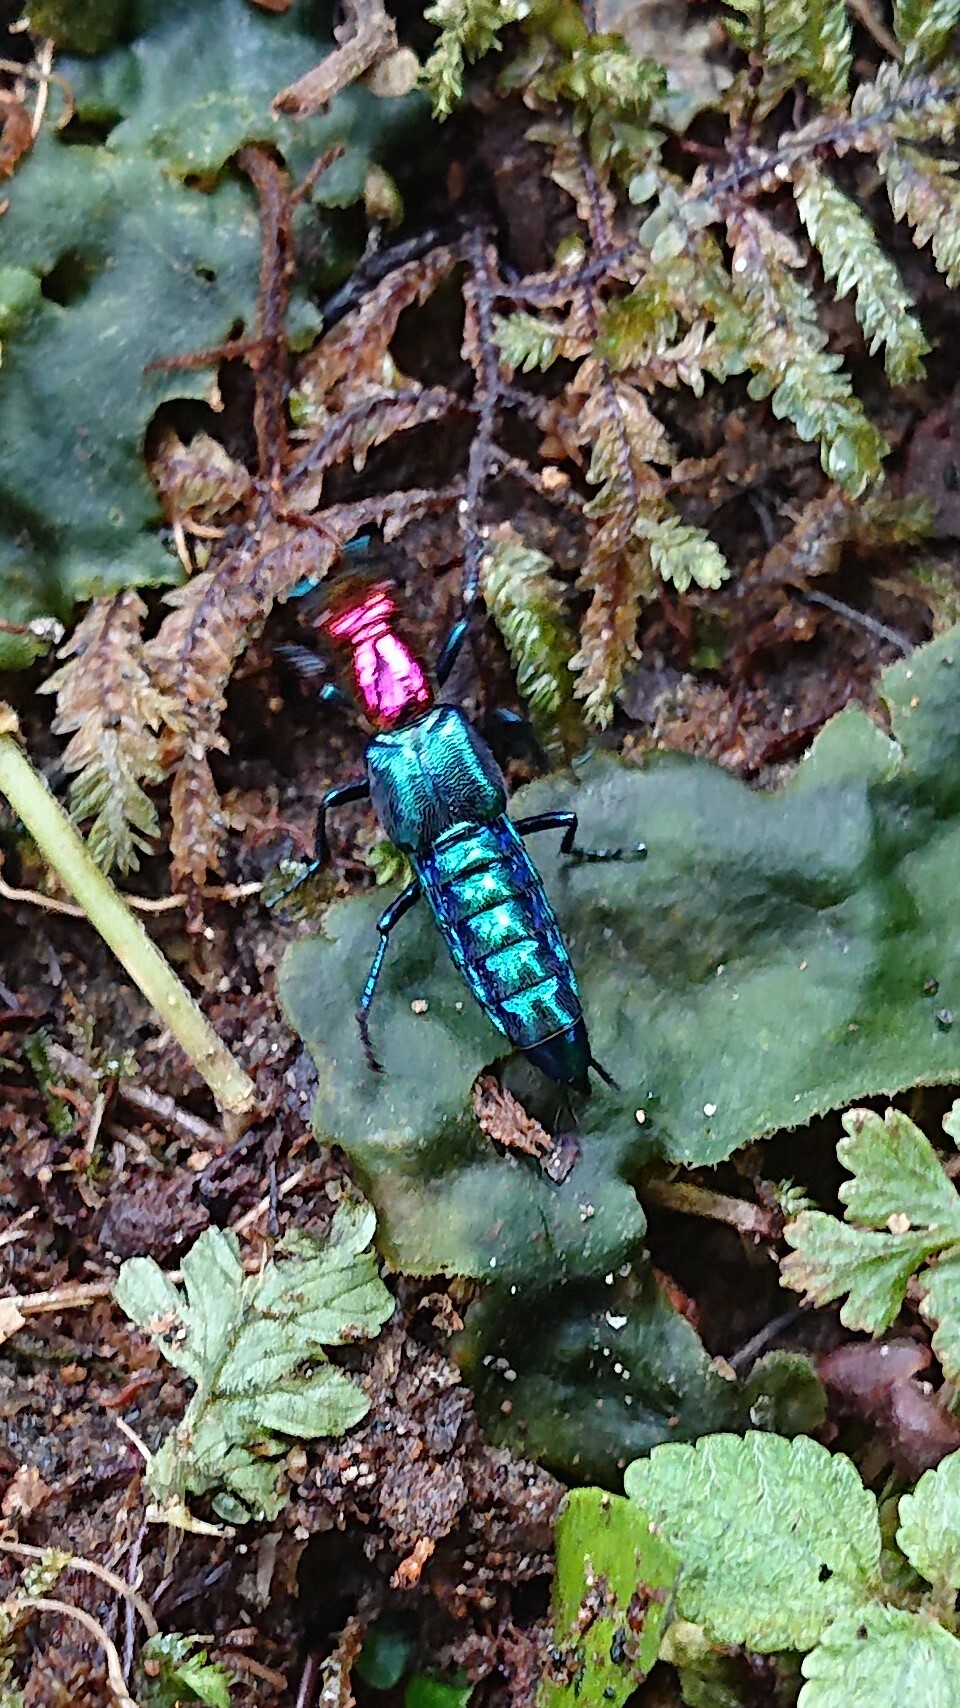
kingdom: Animalia
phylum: Arthropoda
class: Insecta
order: Coleoptera
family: Staphylinidae
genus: Phanolinus
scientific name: Phanolinus pretiosus
